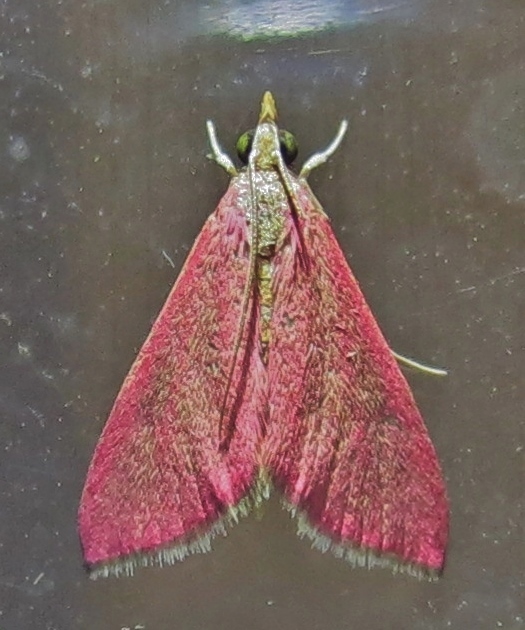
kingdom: Animalia
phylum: Arthropoda
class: Insecta
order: Lepidoptera
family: Crambidae
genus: Pyrausta
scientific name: Pyrausta inornatalis
